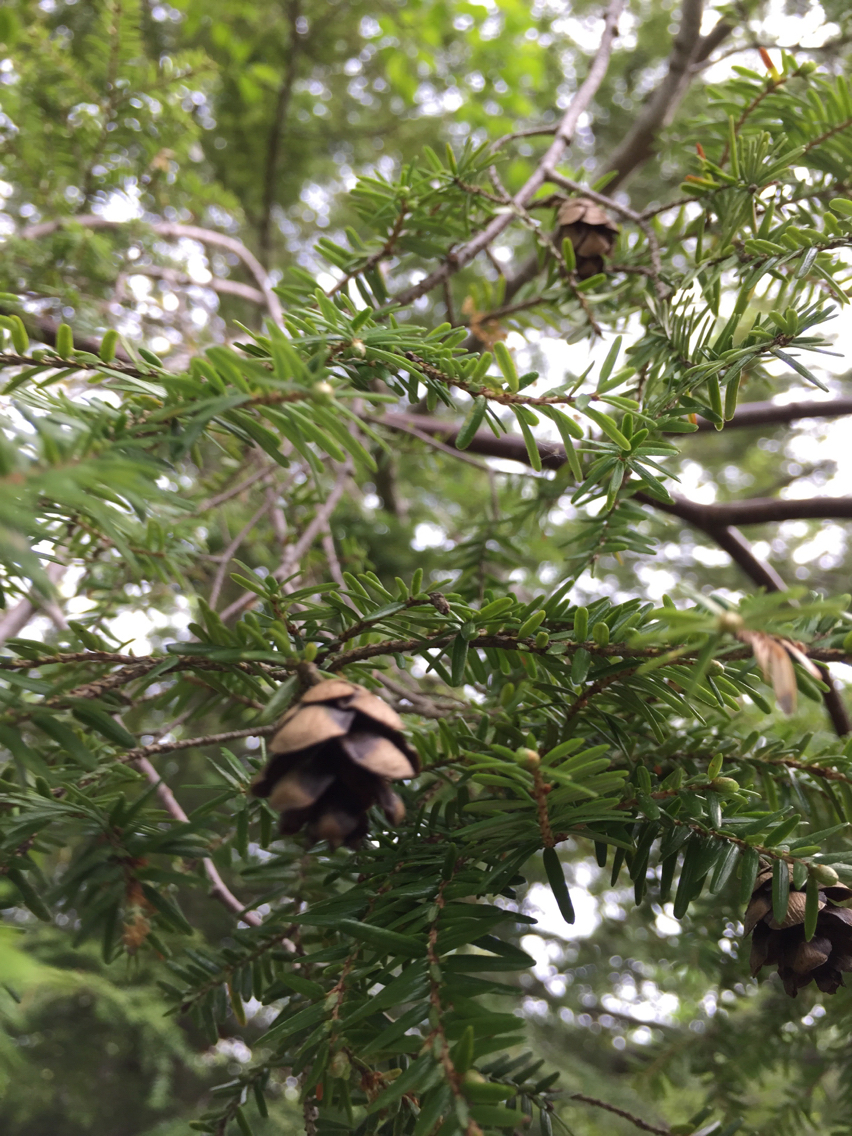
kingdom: Plantae
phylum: Tracheophyta
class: Pinopsida
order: Pinales
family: Pinaceae
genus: Tsuga
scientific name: Tsuga canadensis
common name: Eastern hemlock
